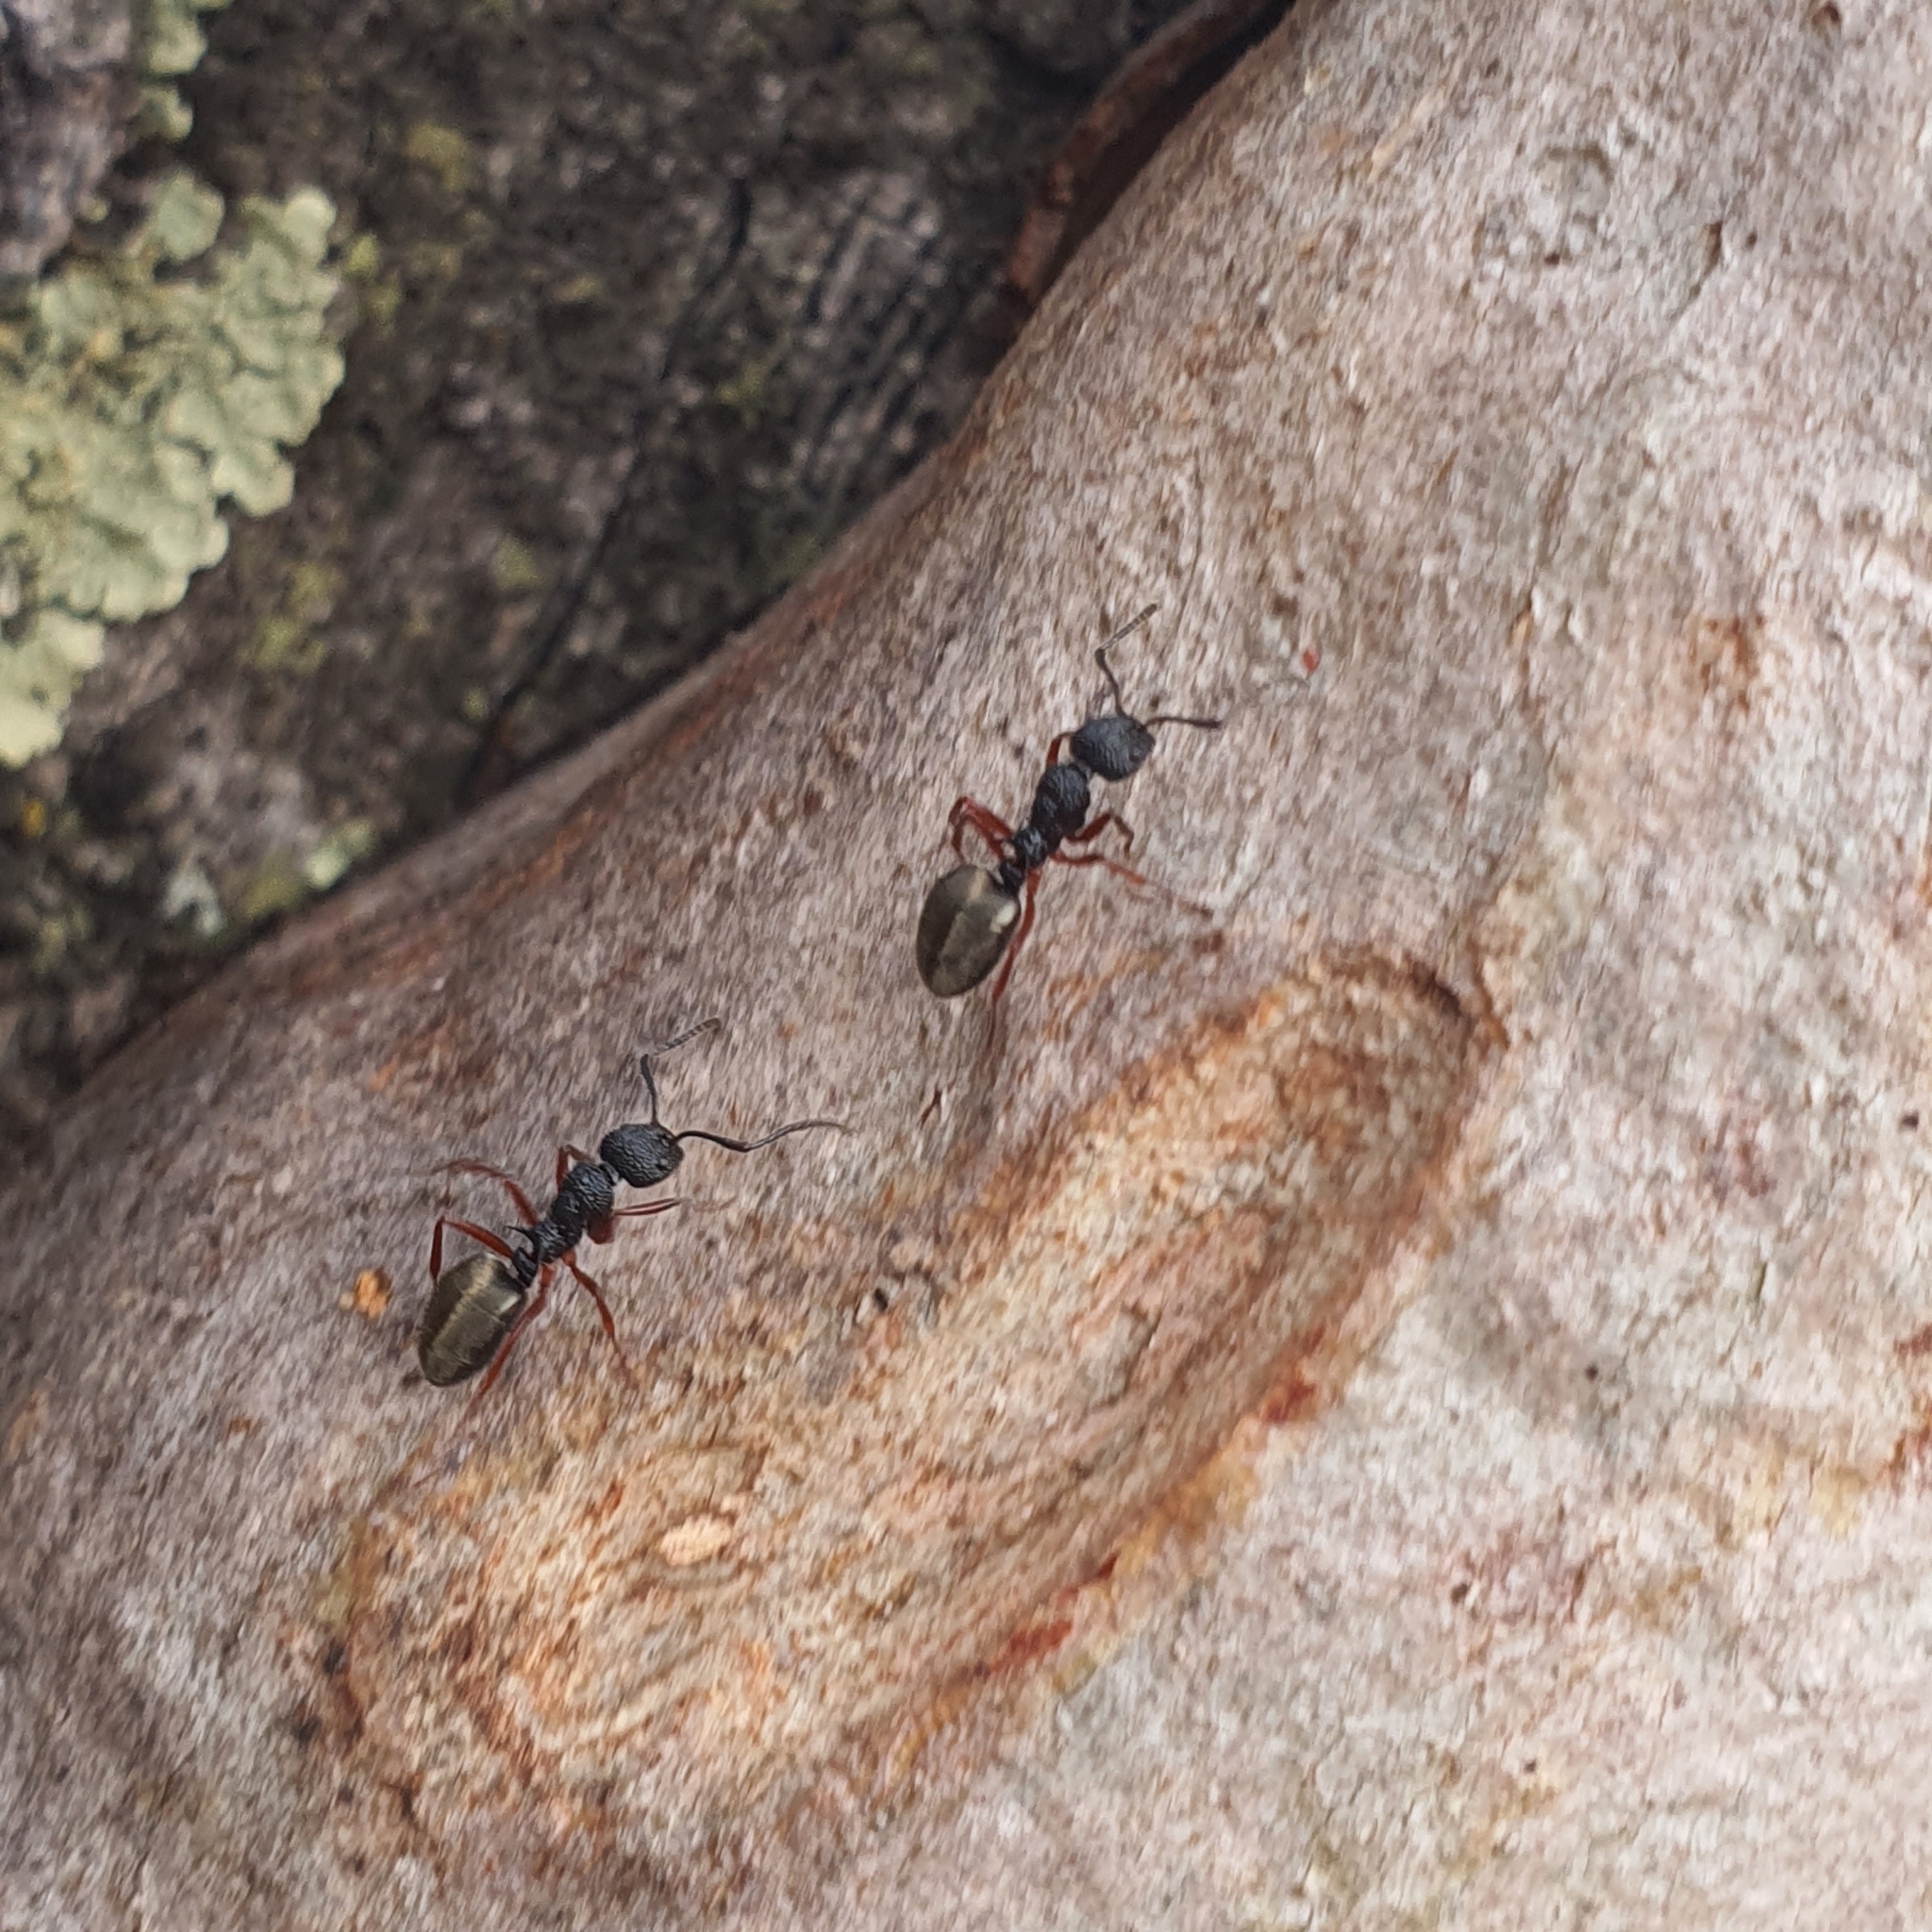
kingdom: Animalia
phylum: Arthropoda
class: Insecta
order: Hymenoptera
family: Formicidae
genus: Dolichoderus
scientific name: Dolichoderus scabridus
